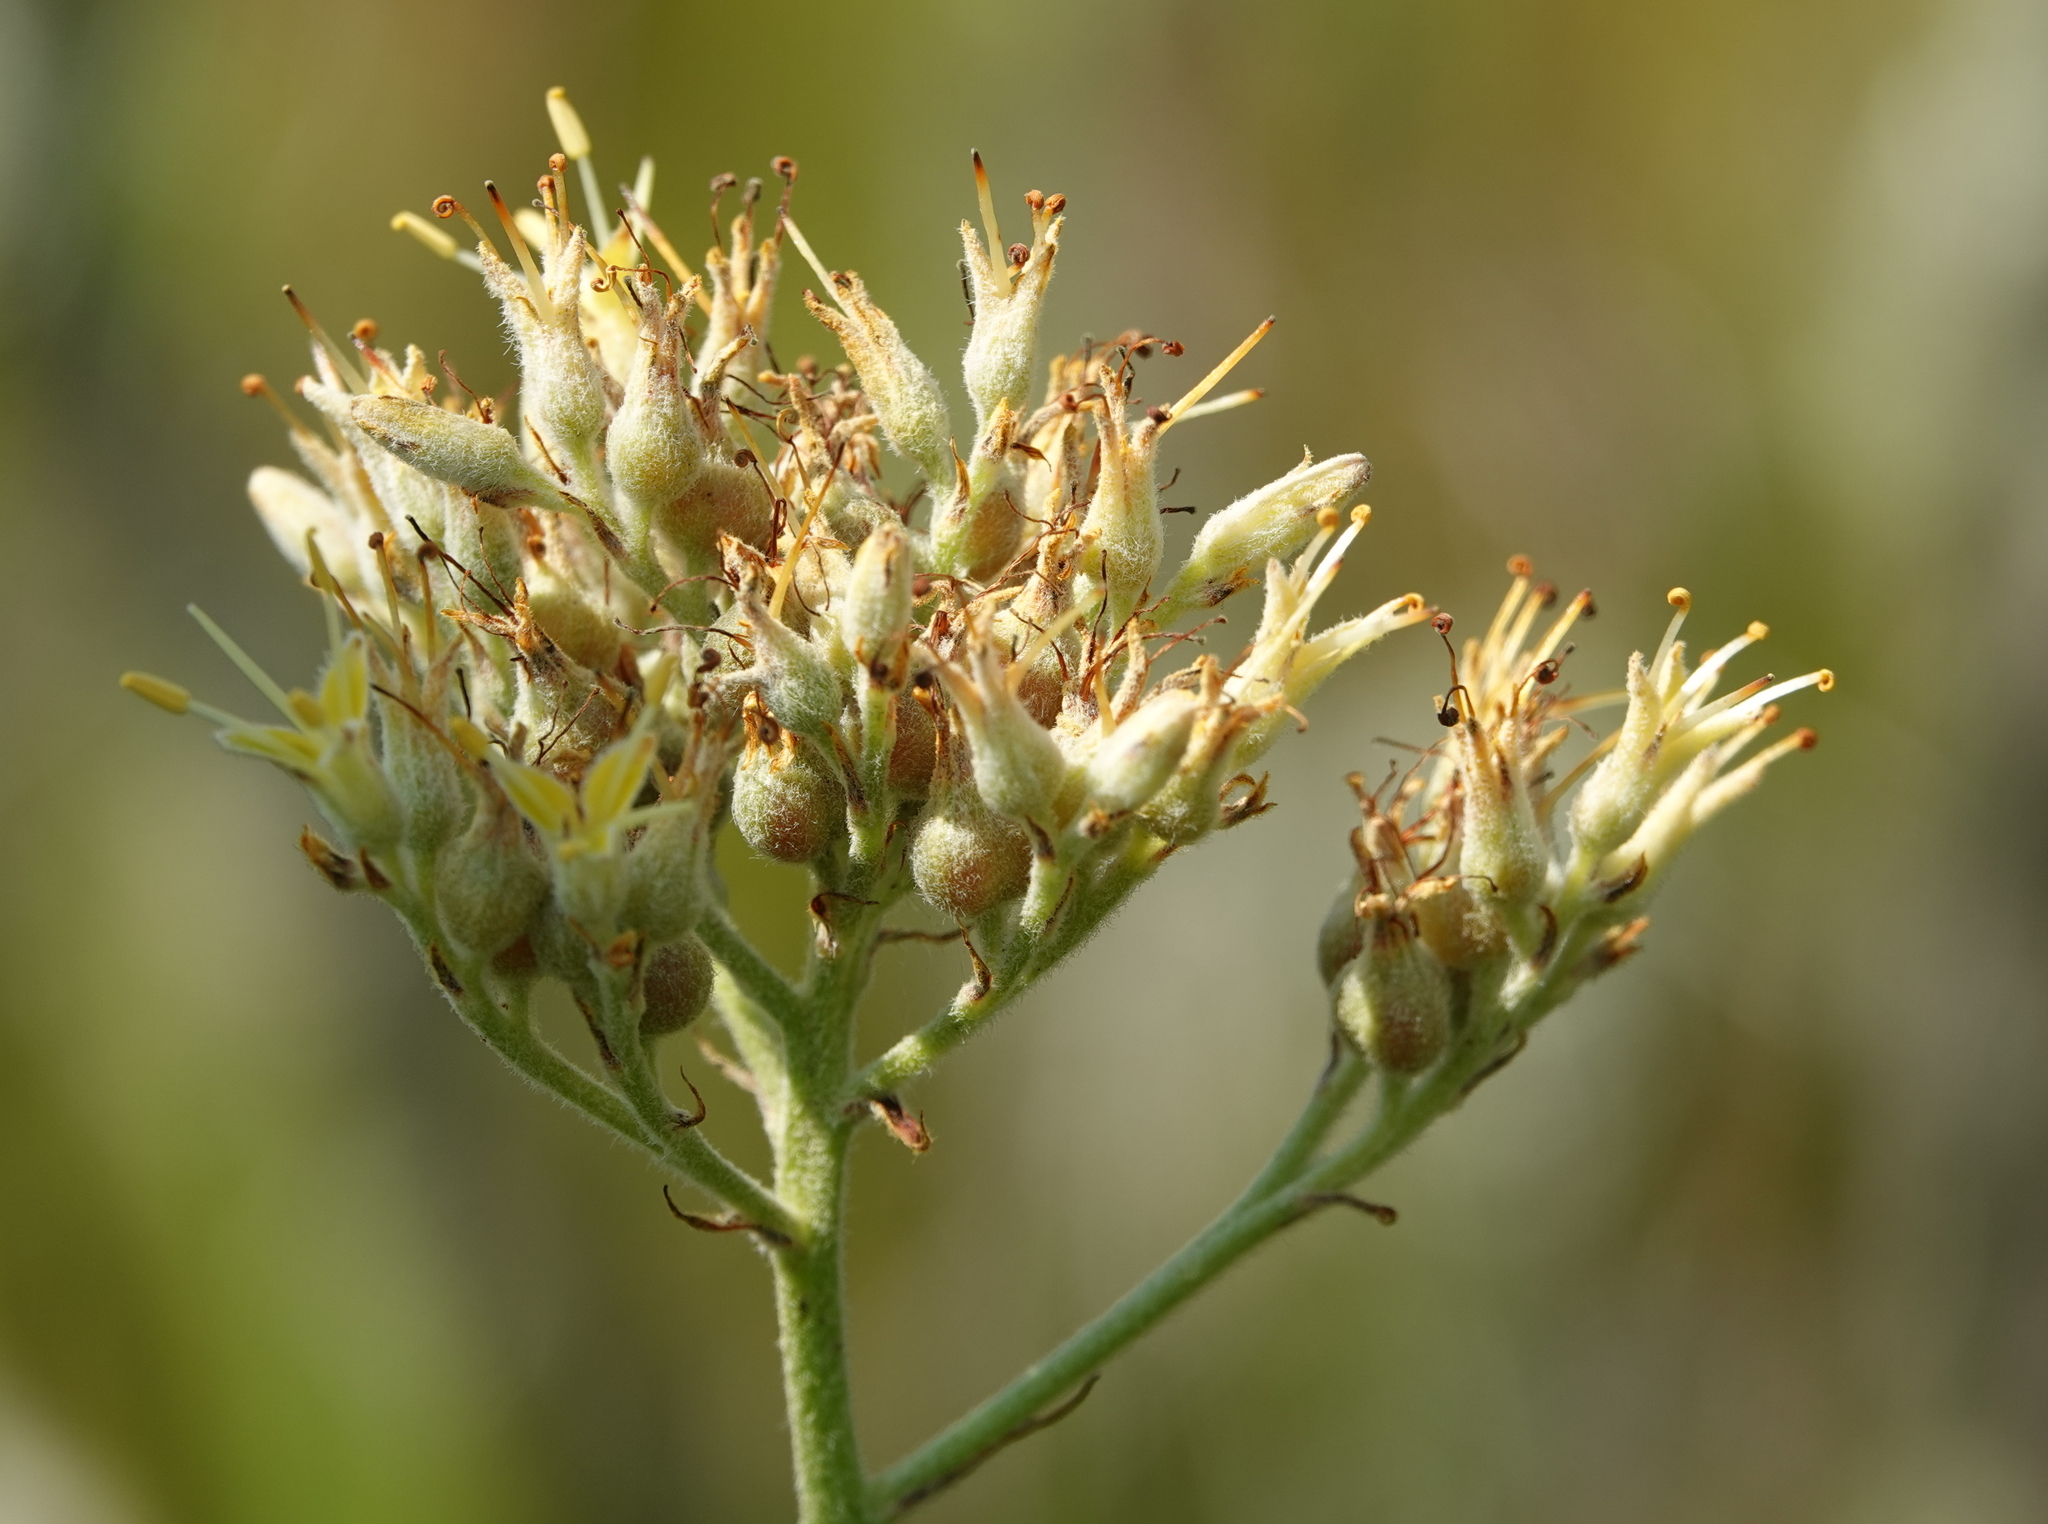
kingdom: Plantae
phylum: Tracheophyta
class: Liliopsida
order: Commelinales
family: Haemodoraceae
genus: Lachnanthes
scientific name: Lachnanthes caroliana
